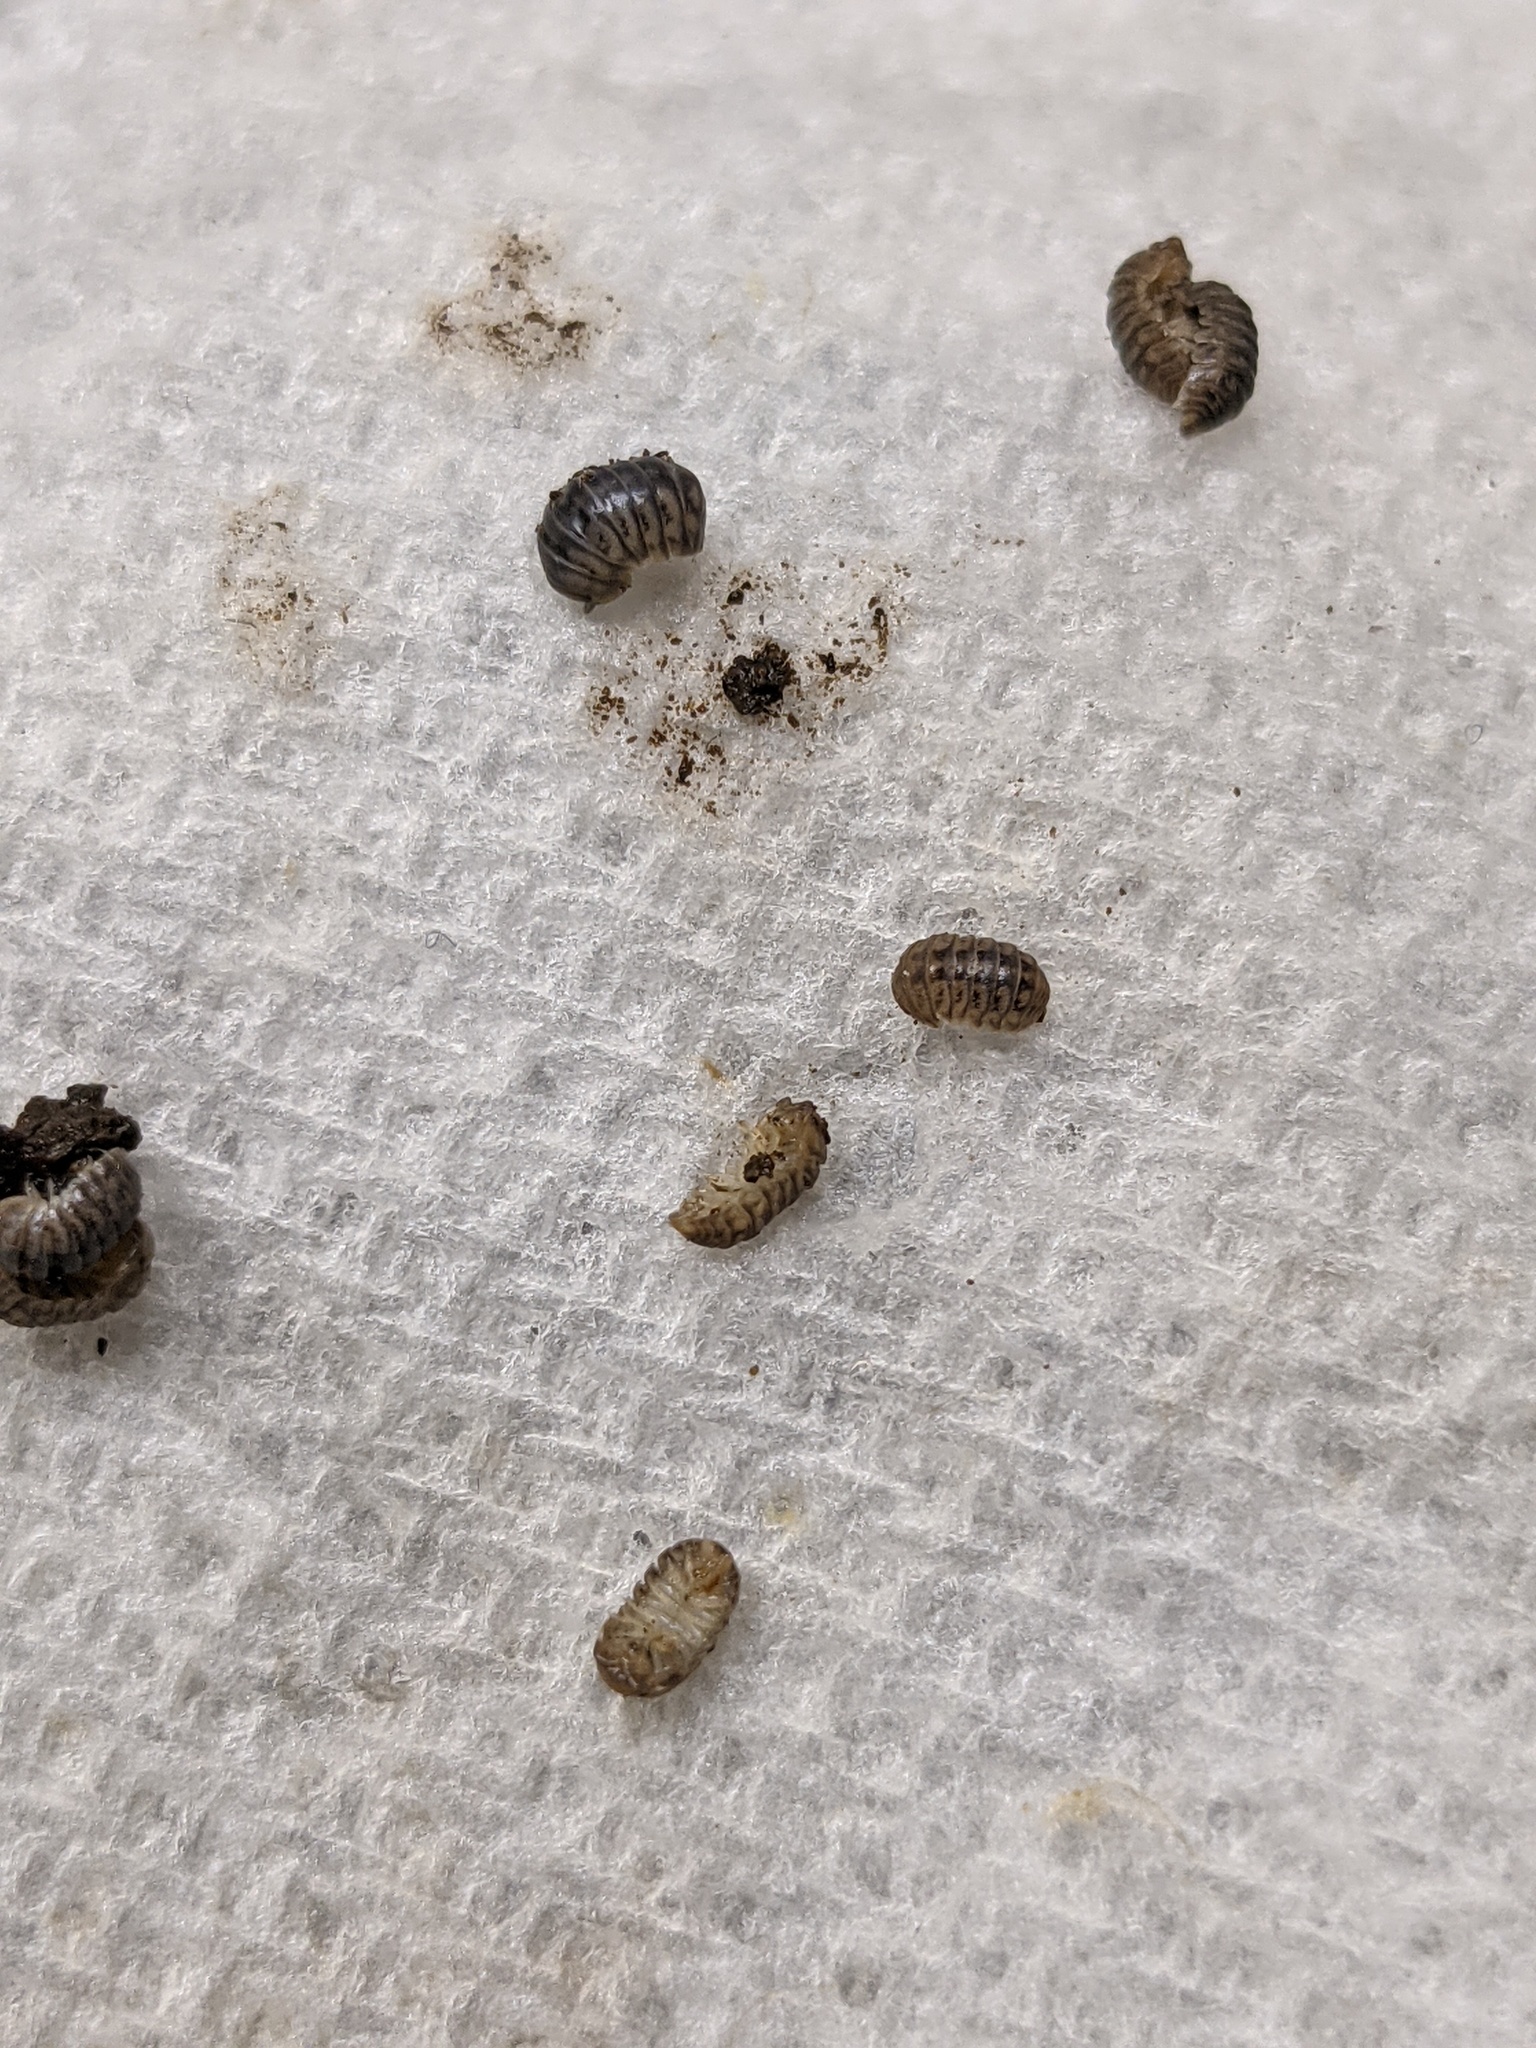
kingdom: Animalia
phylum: Arthropoda
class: Malacostraca
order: Isopoda
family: Armadillidae
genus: Venezillo
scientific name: Venezillo parvus
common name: Pillbug
